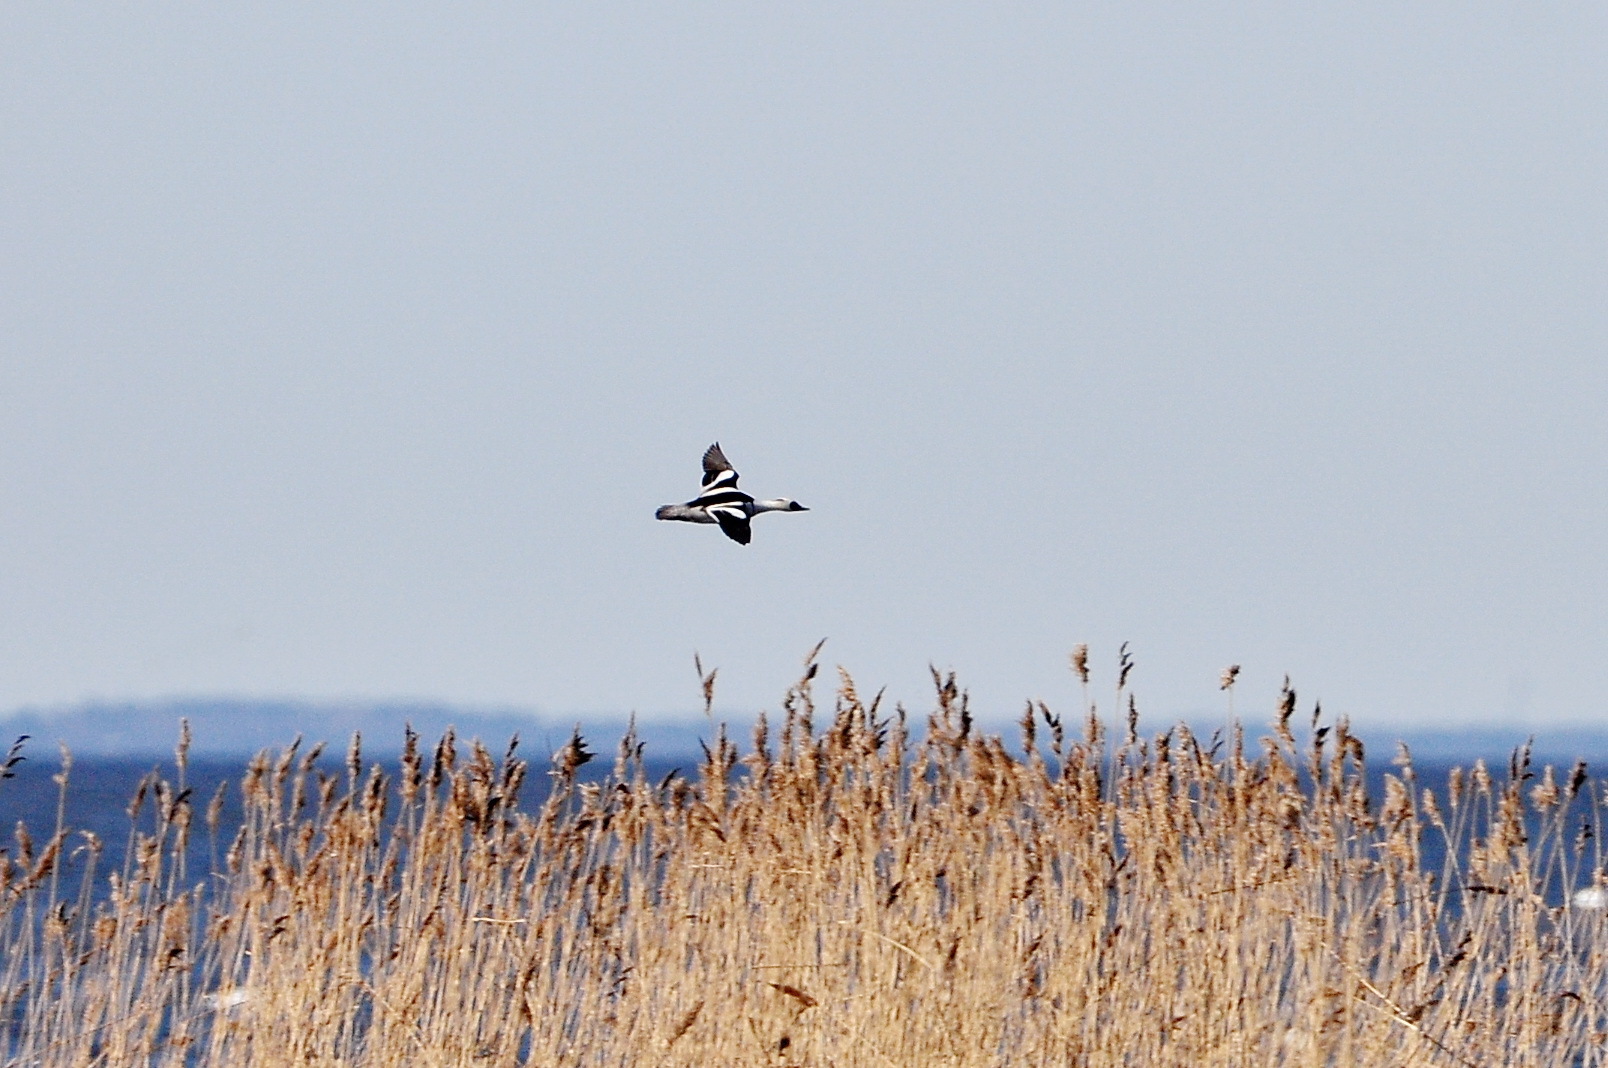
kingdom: Animalia
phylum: Chordata
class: Aves
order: Anseriformes
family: Anatidae
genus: Mergellus
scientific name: Mergellus albellus
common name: Smew
